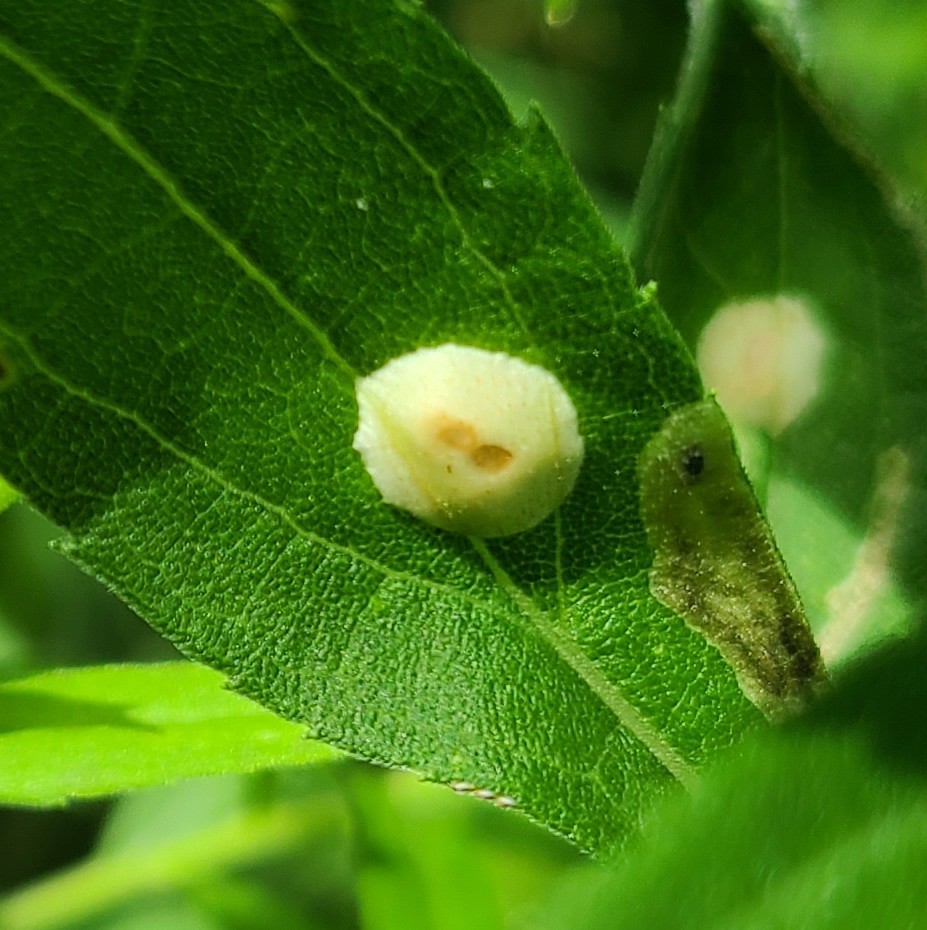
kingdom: Animalia
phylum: Arthropoda
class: Insecta
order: Diptera
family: Cecidomyiidae
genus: Asteromyia
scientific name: Asteromyia carbonifera
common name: Carbonifera goldenrod gall midge
